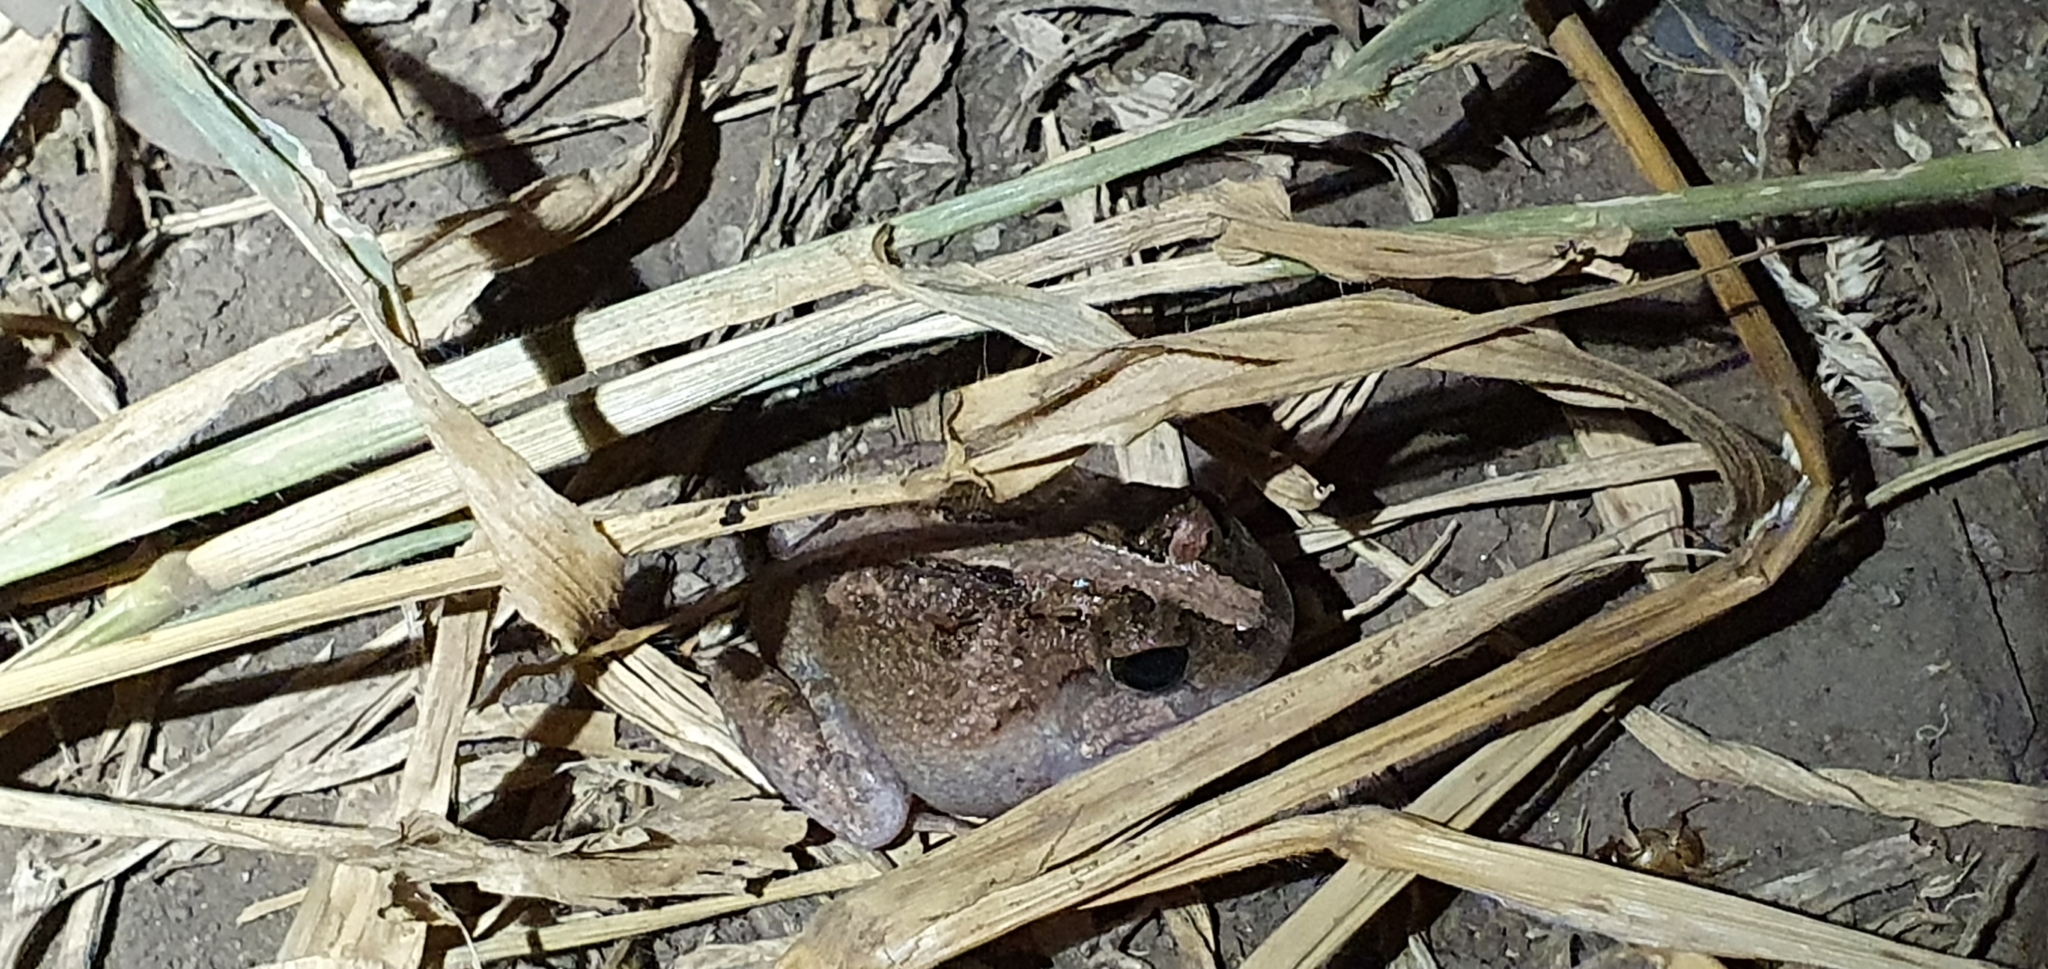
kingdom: Animalia
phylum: Chordata
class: Amphibia
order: Anura
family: Limnodynastidae
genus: Platyplectrum
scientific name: Platyplectrum ornatum
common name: Ornate burrowing frog
